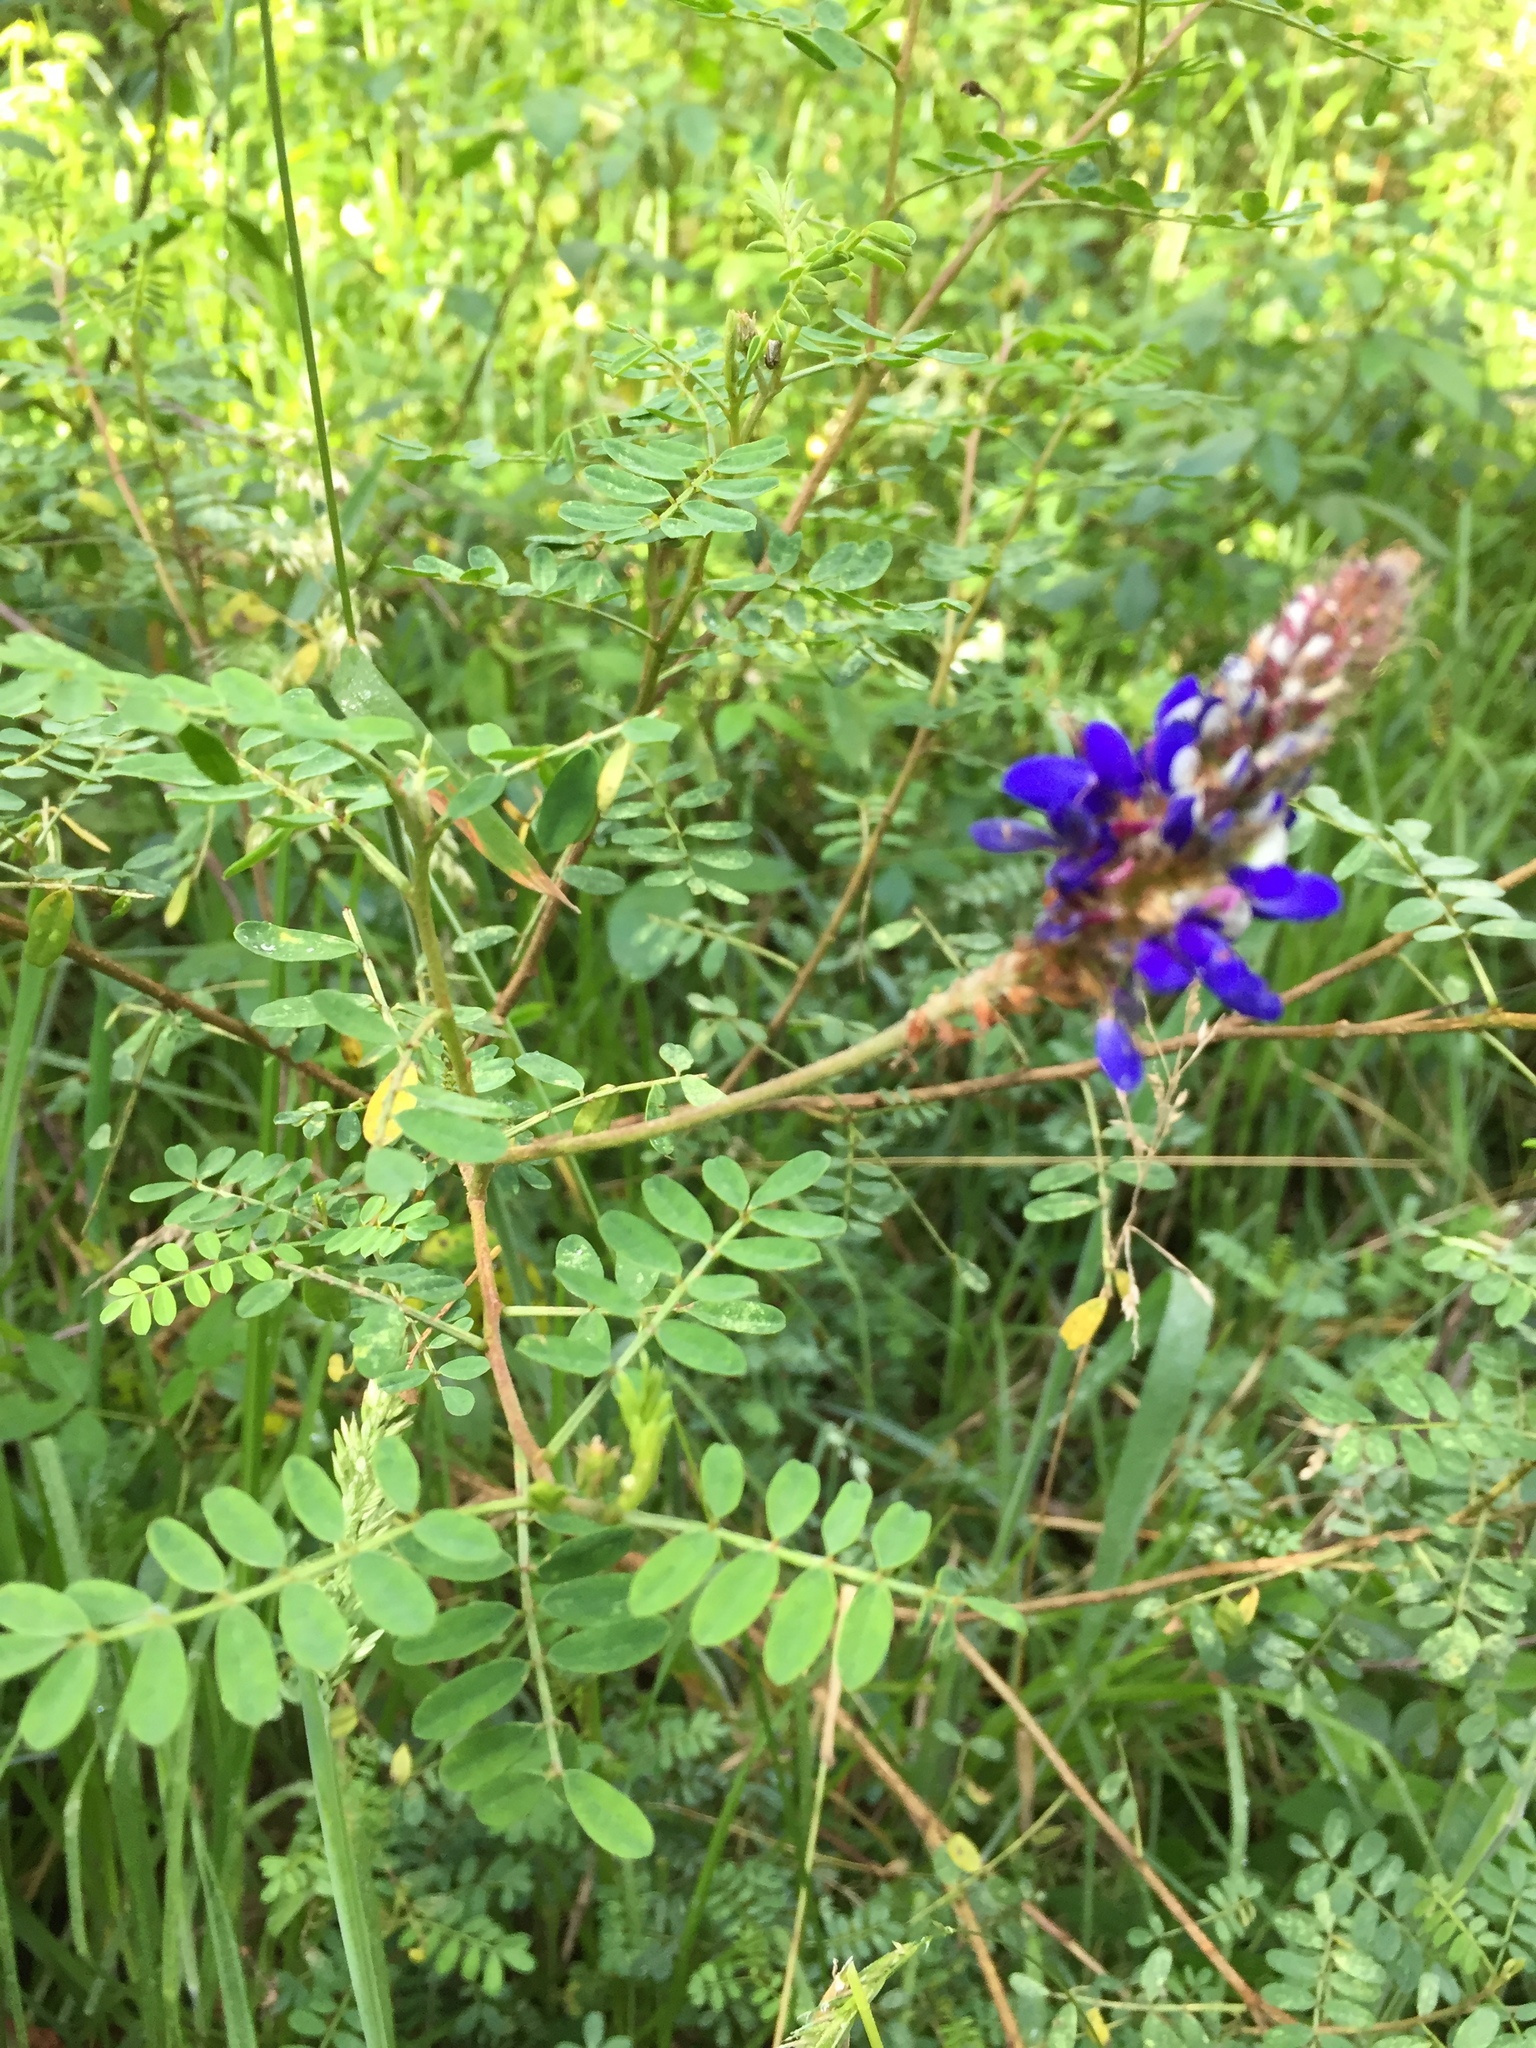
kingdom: Plantae
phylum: Tracheophyta
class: Magnoliopsida
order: Fabales
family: Fabaceae
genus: Dalea
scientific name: Dalea coerulea
